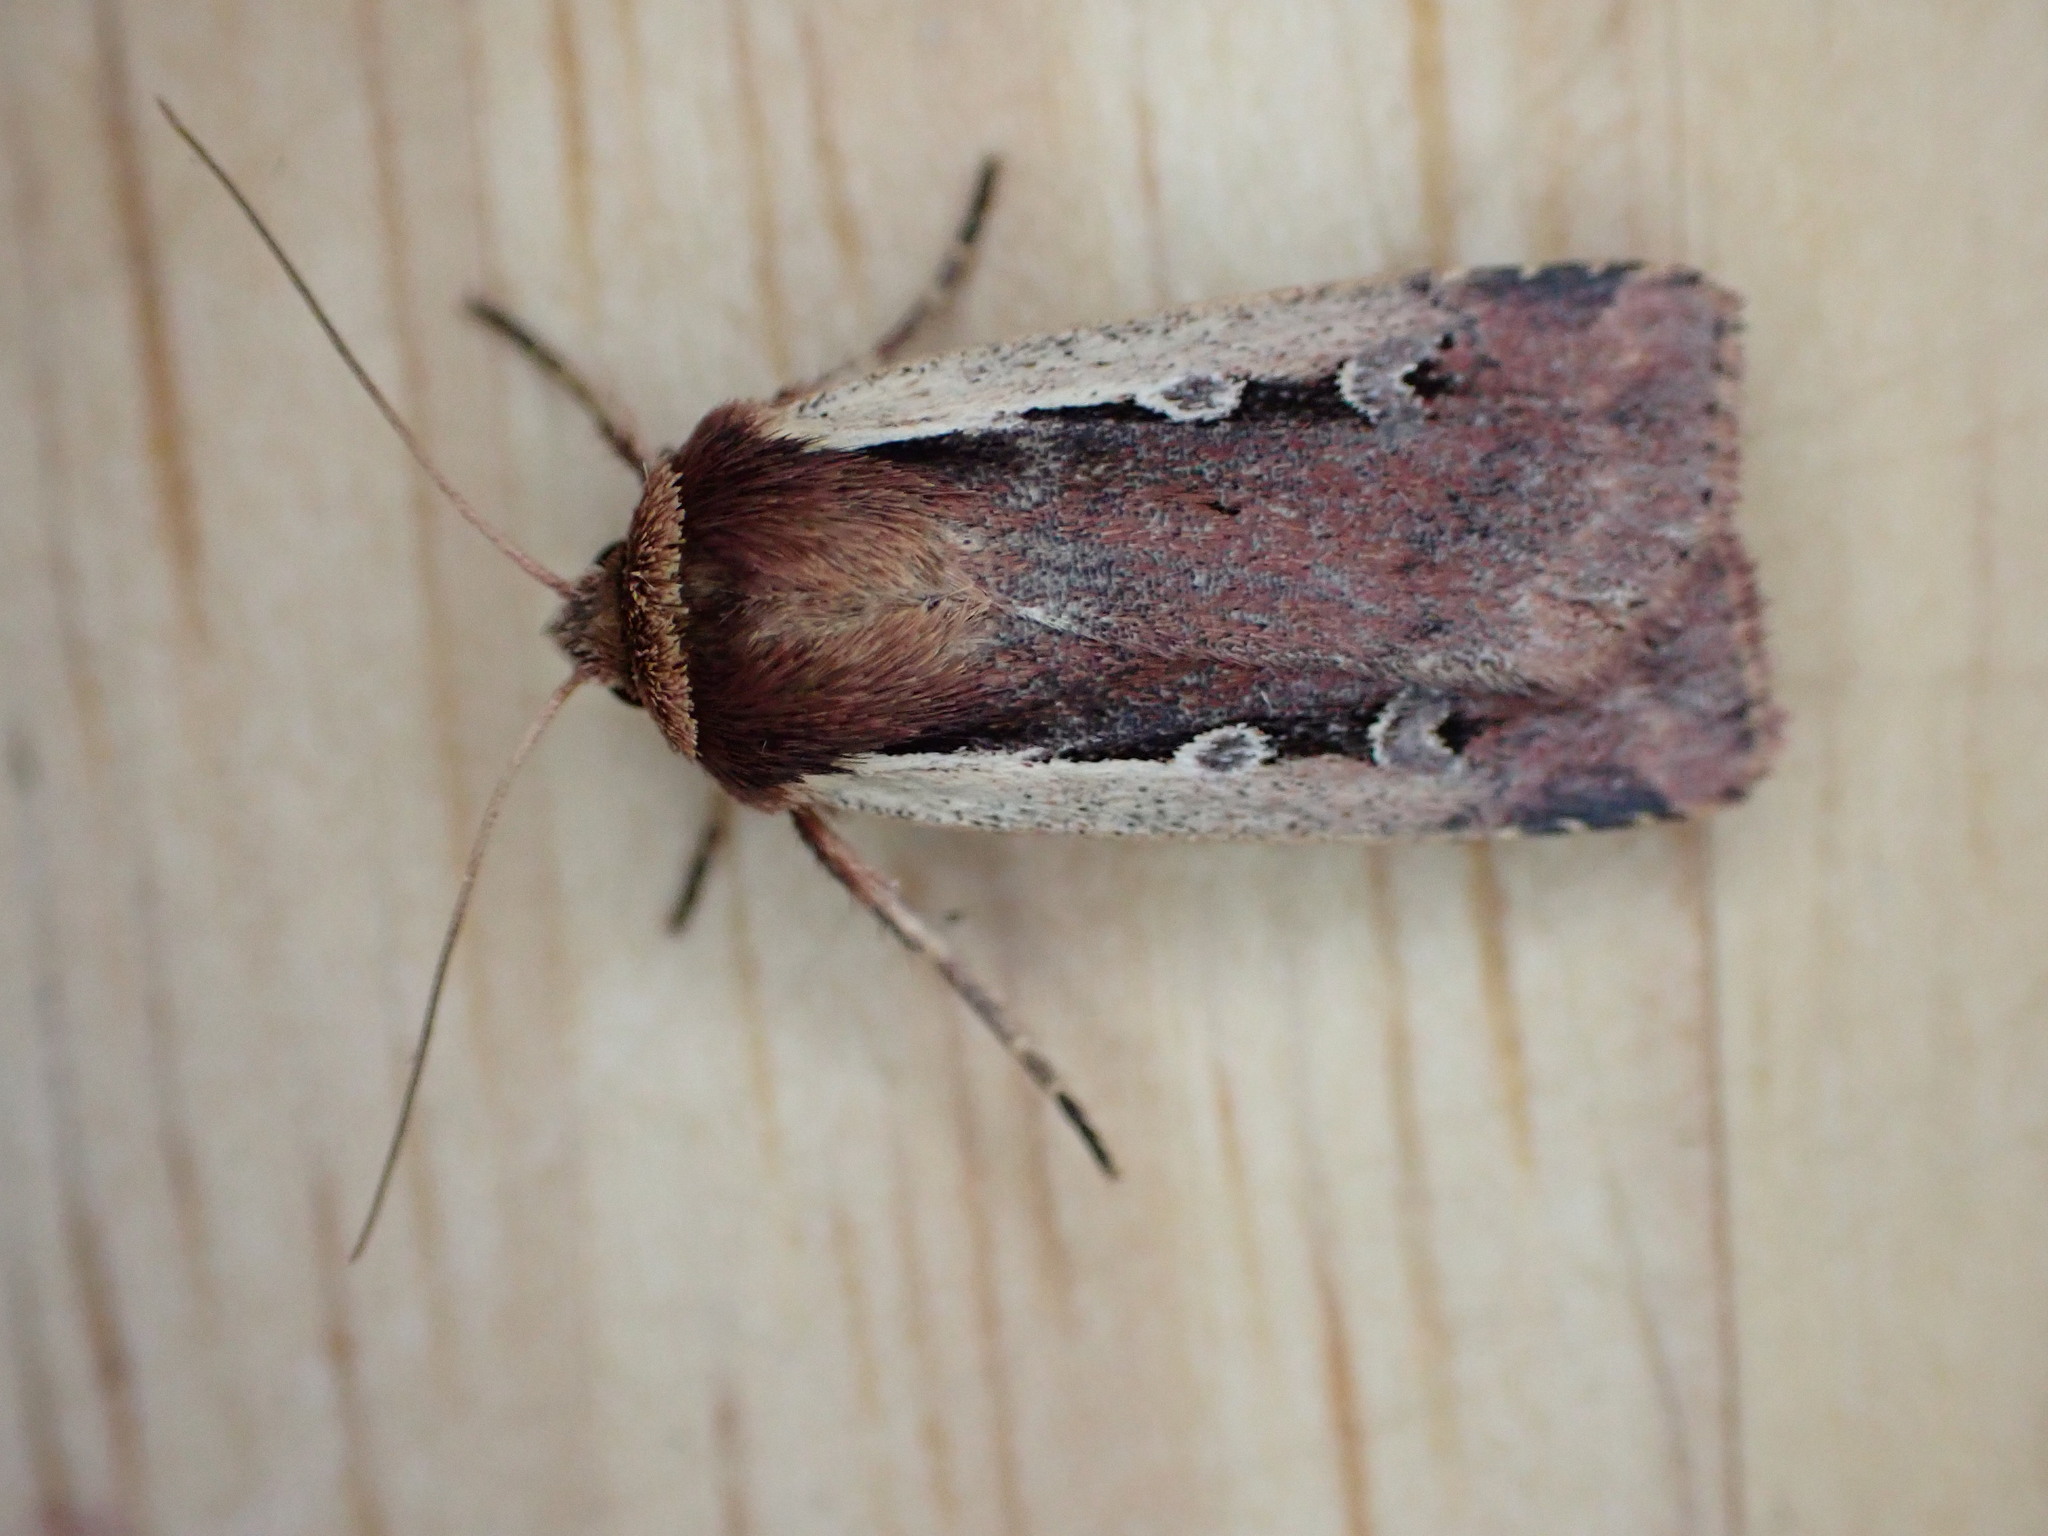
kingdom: Animalia
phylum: Arthropoda
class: Insecta
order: Lepidoptera
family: Noctuidae
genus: Ochropleura
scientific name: Ochropleura plecta
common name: Flame shoulder
